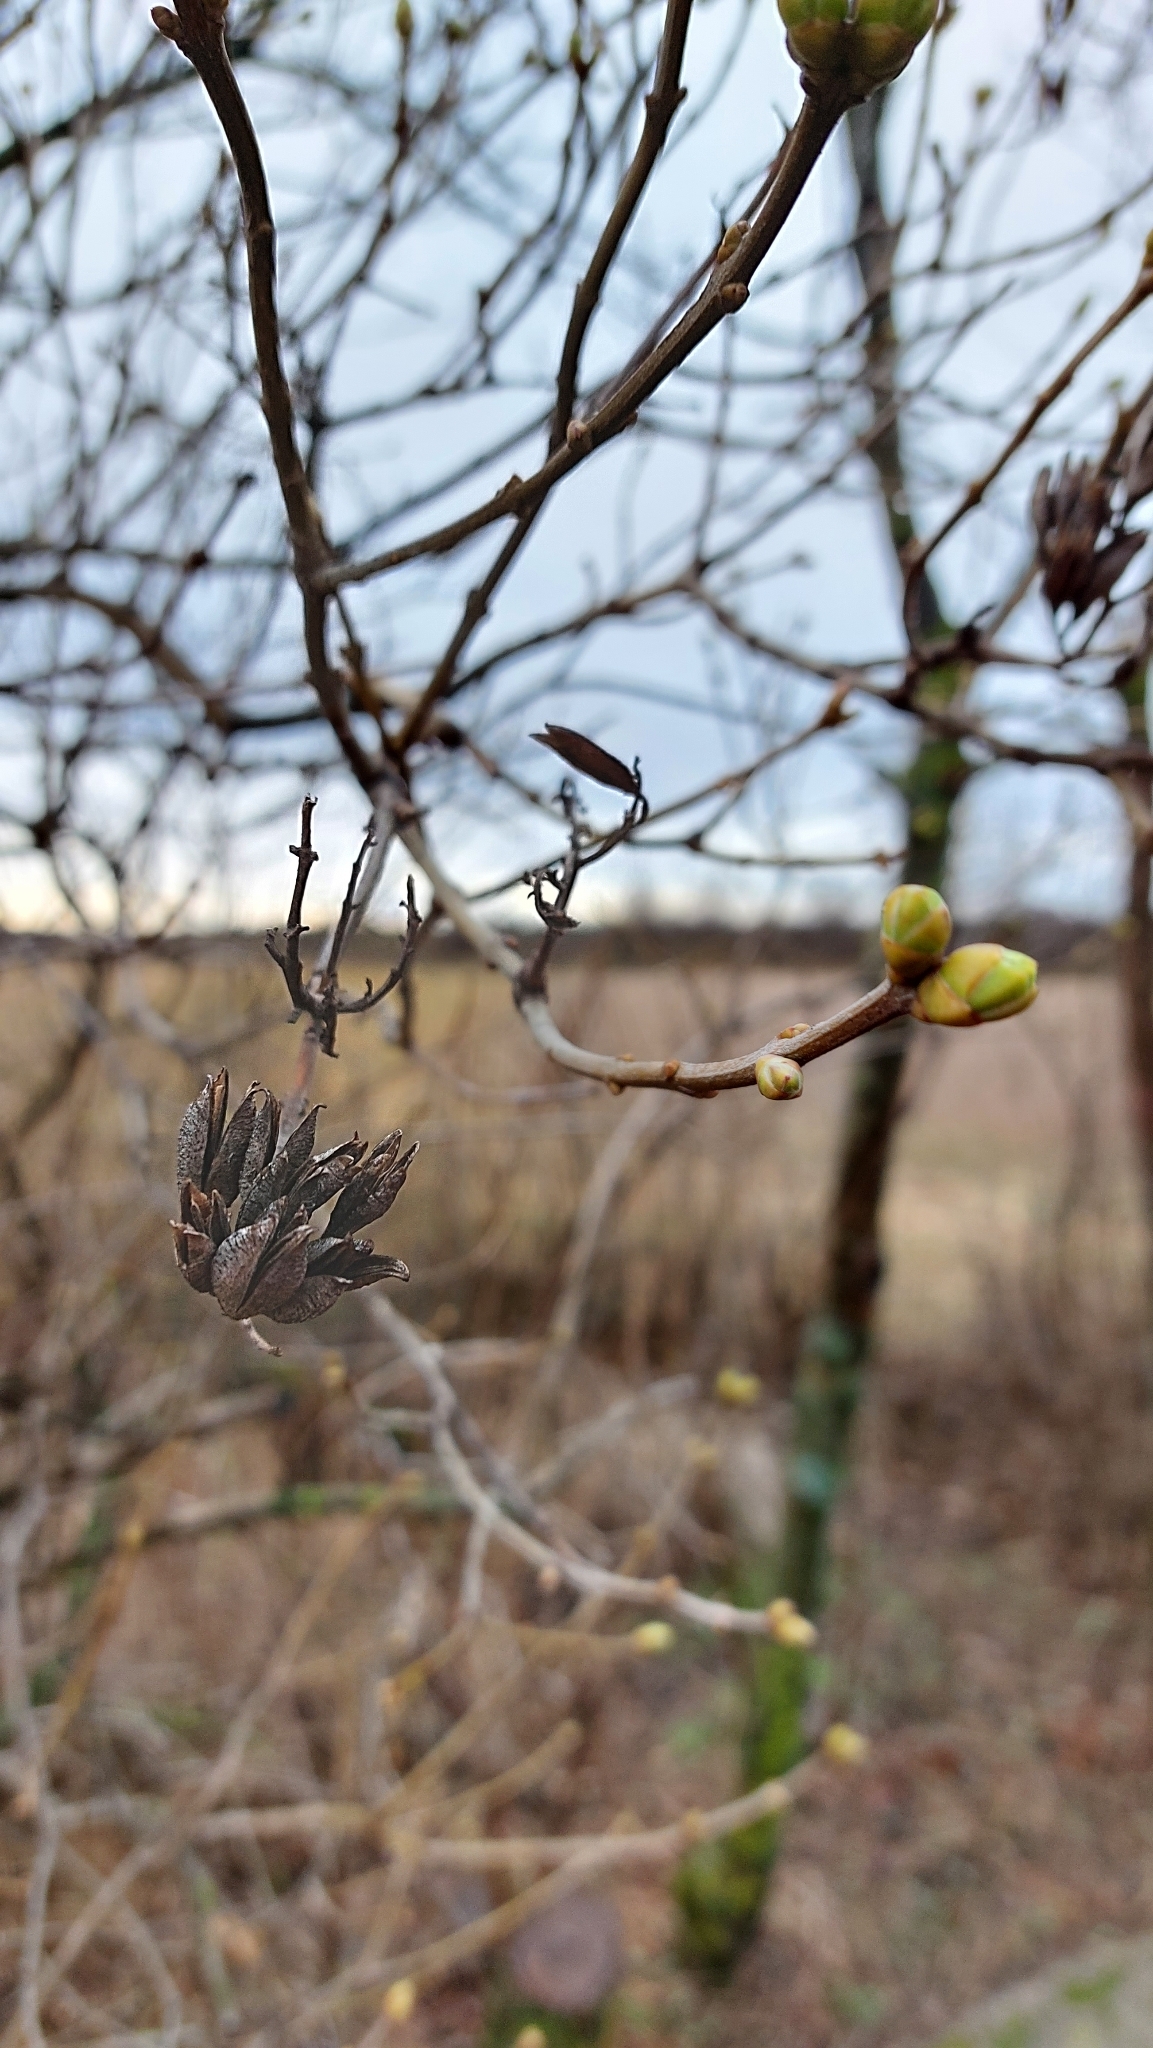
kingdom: Plantae
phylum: Tracheophyta
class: Magnoliopsida
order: Lamiales
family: Oleaceae
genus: Syringa
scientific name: Syringa vulgaris
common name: Common lilac
